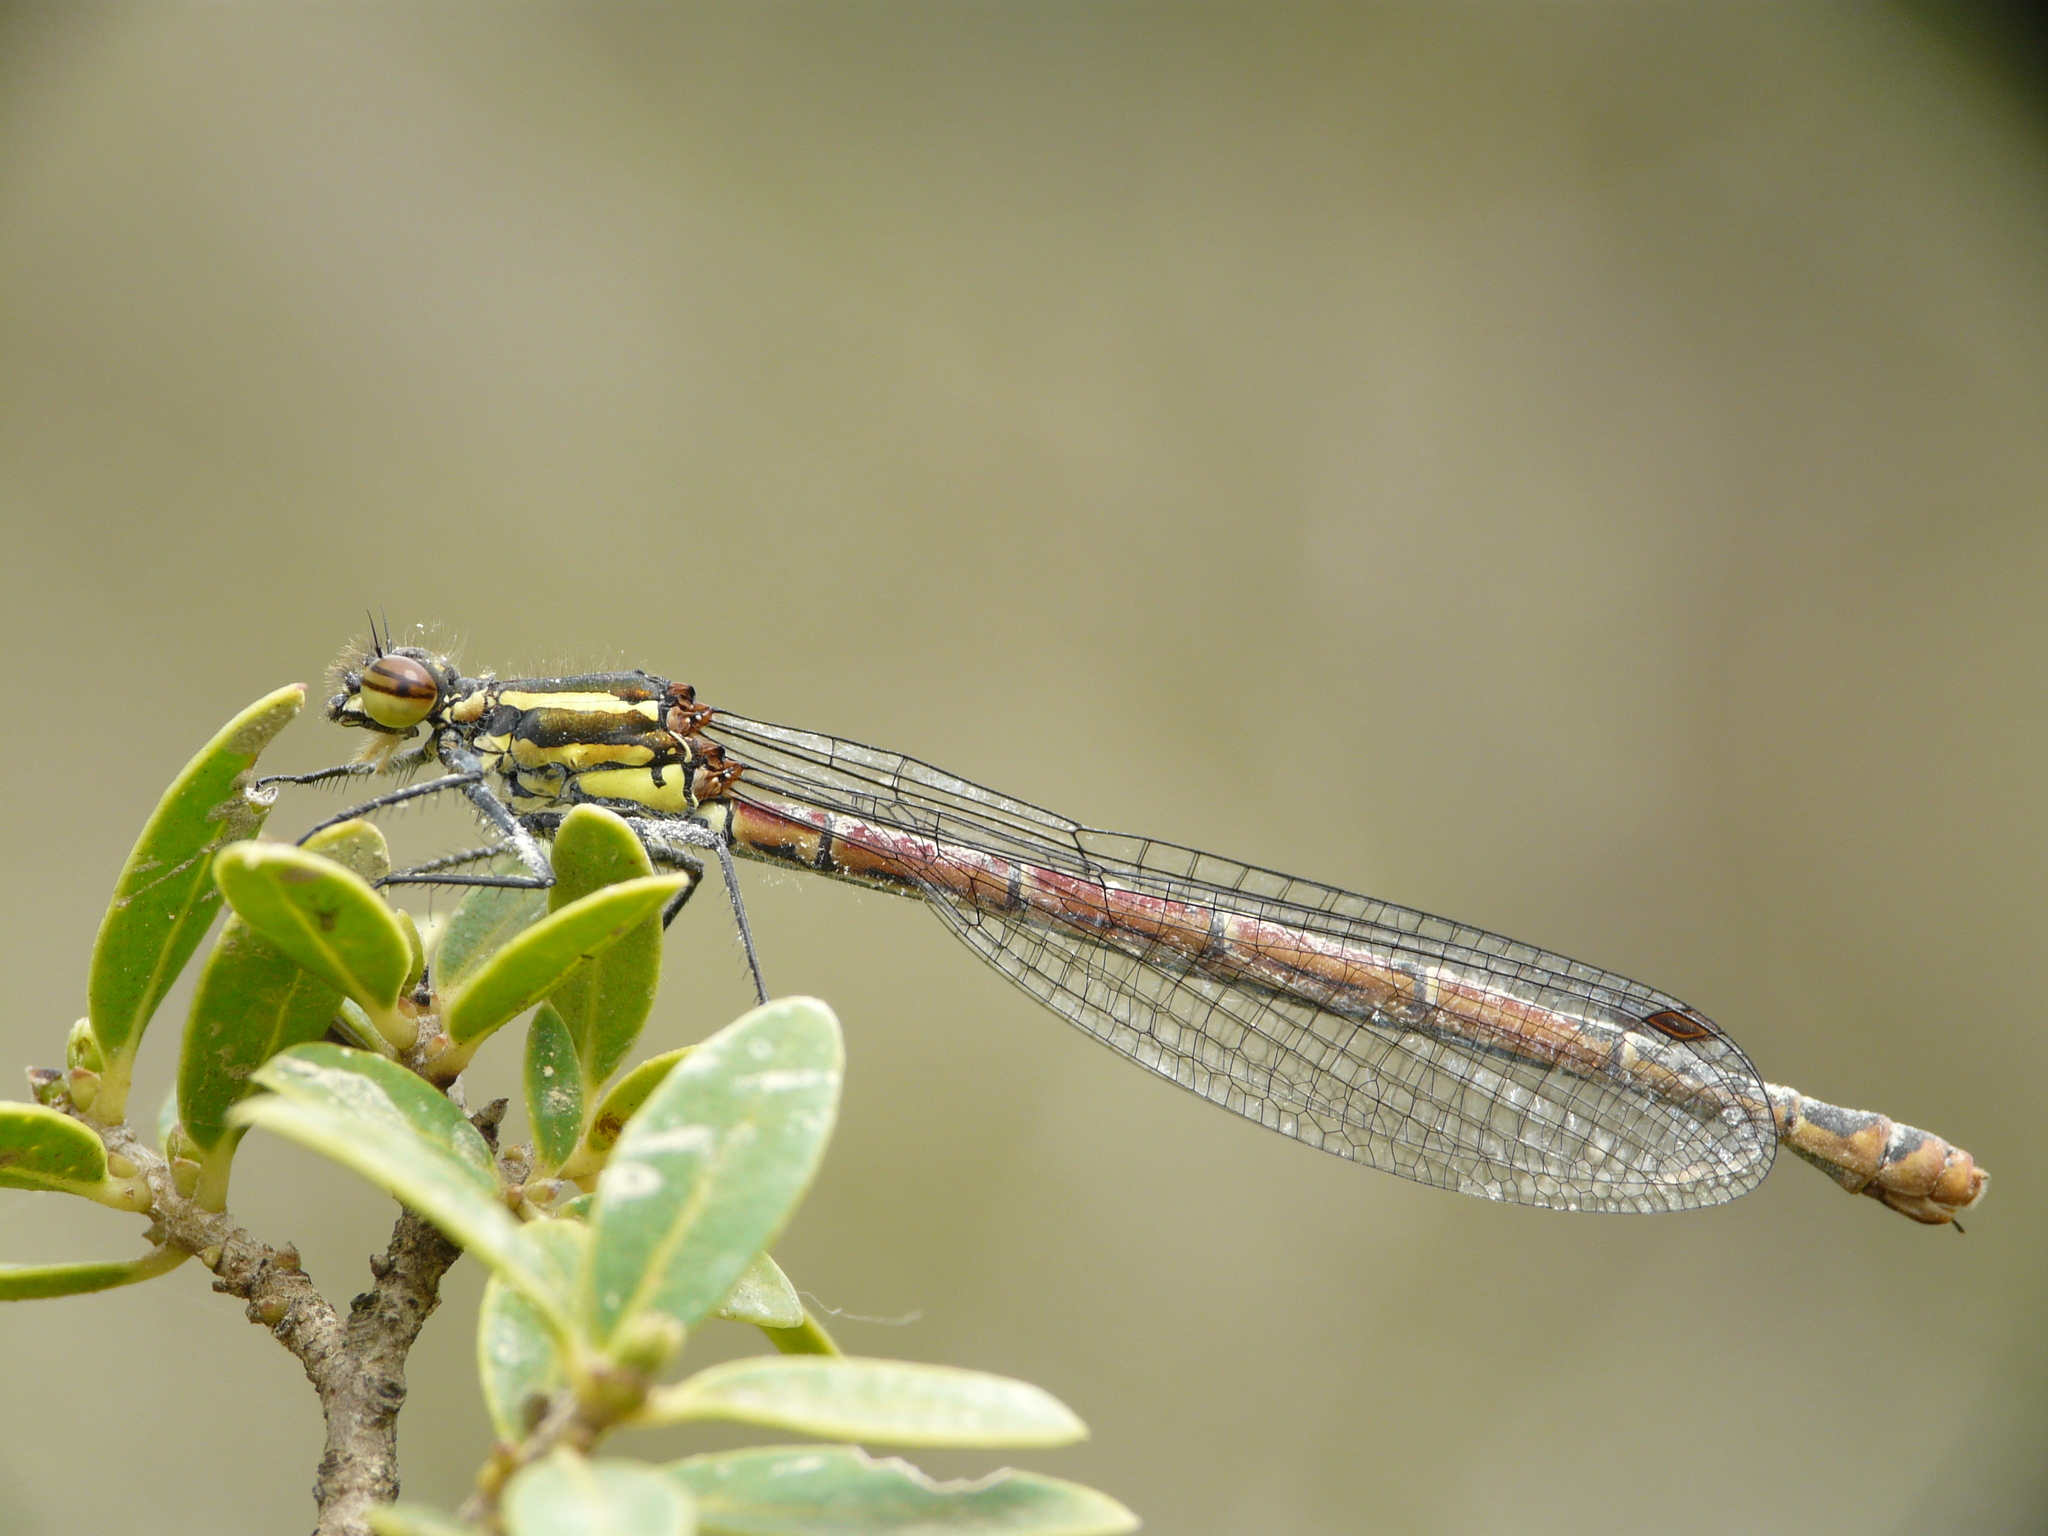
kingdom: Animalia
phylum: Arthropoda
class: Insecta
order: Odonata
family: Coenagrionidae
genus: Pyrrhosoma
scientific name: Pyrrhosoma nymphula
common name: Large red damsel
